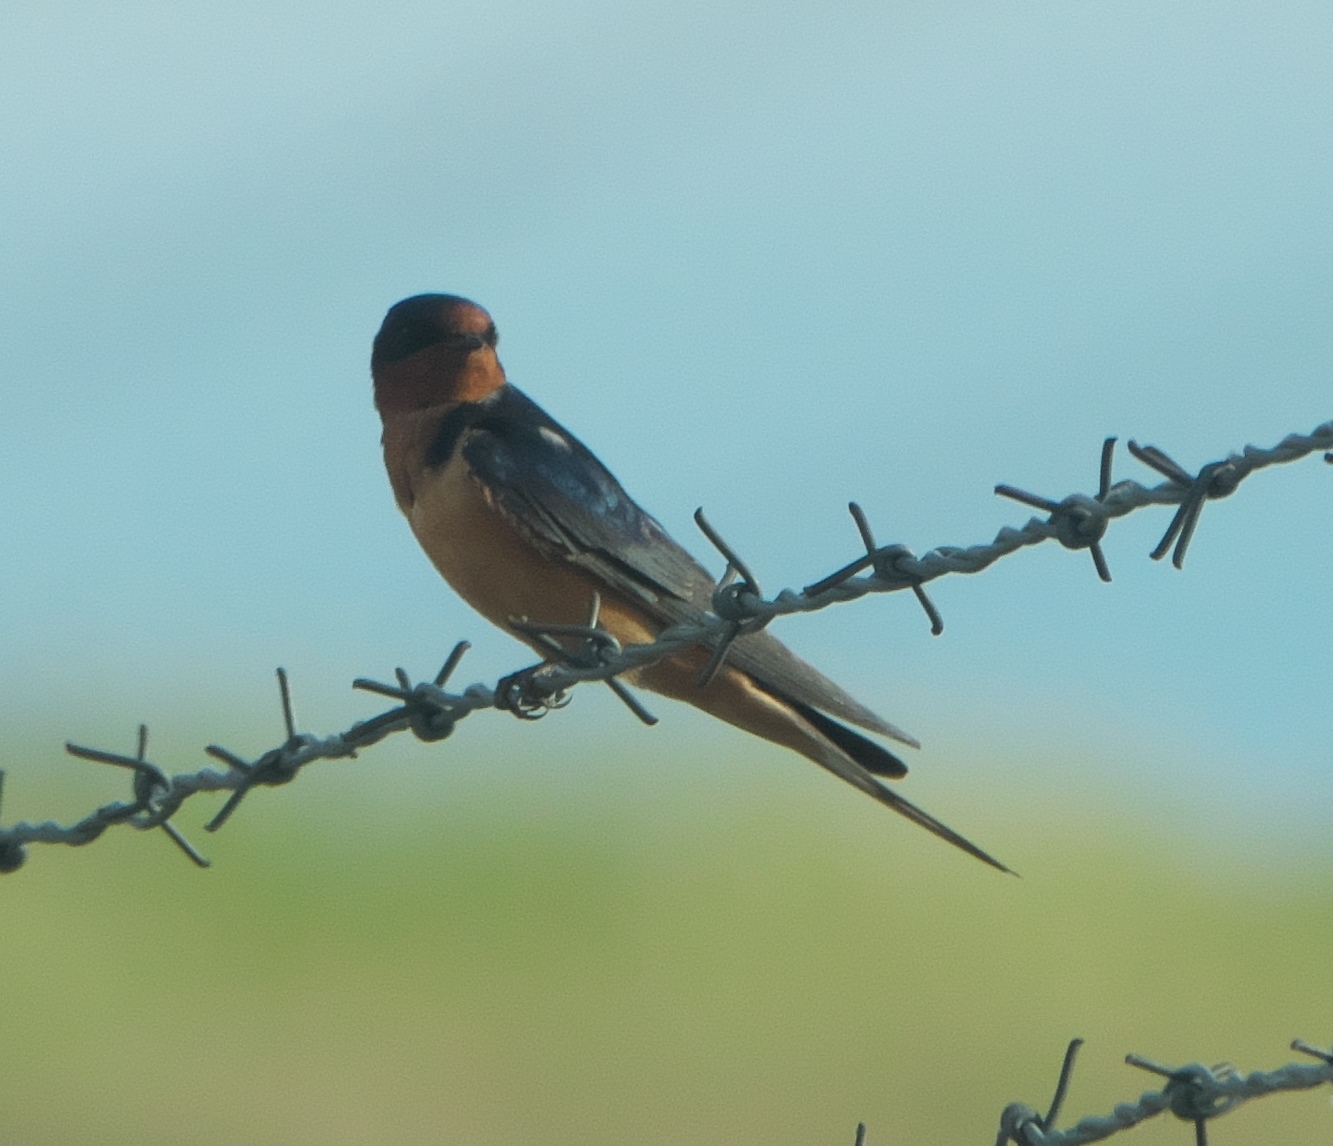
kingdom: Animalia
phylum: Chordata
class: Aves
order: Passeriformes
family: Hirundinidae
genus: Hirundo
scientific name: Hirundo rustica
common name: Barn swallow
